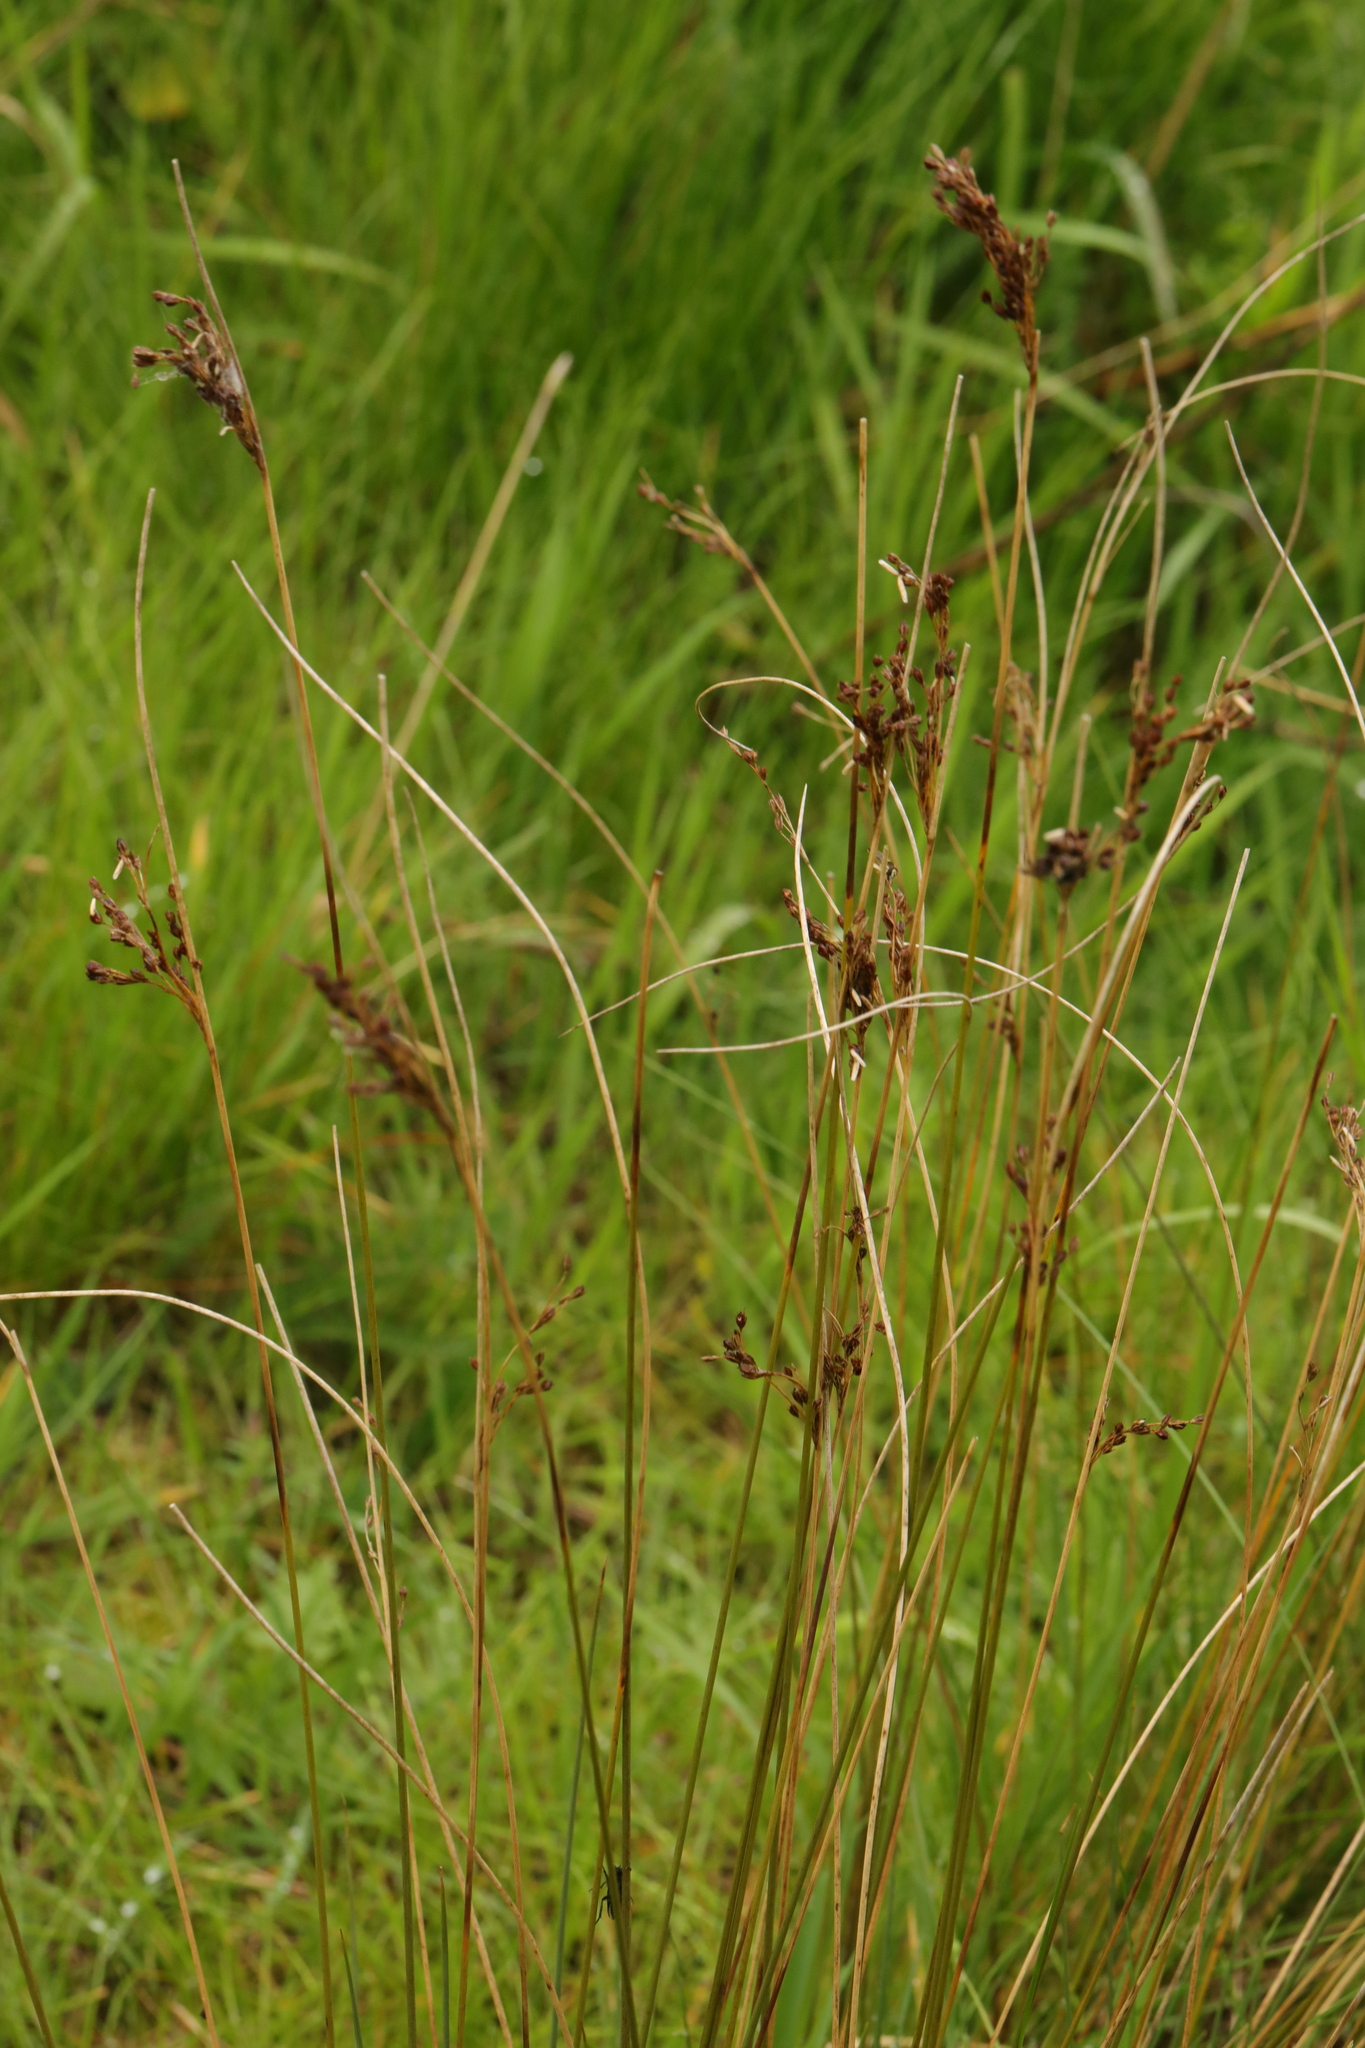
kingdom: Plantae
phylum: Tracheophyta
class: Liliopsida
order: Poales
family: Juncaceae
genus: Juncus
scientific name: Juncus inflexus
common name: Hard rush
